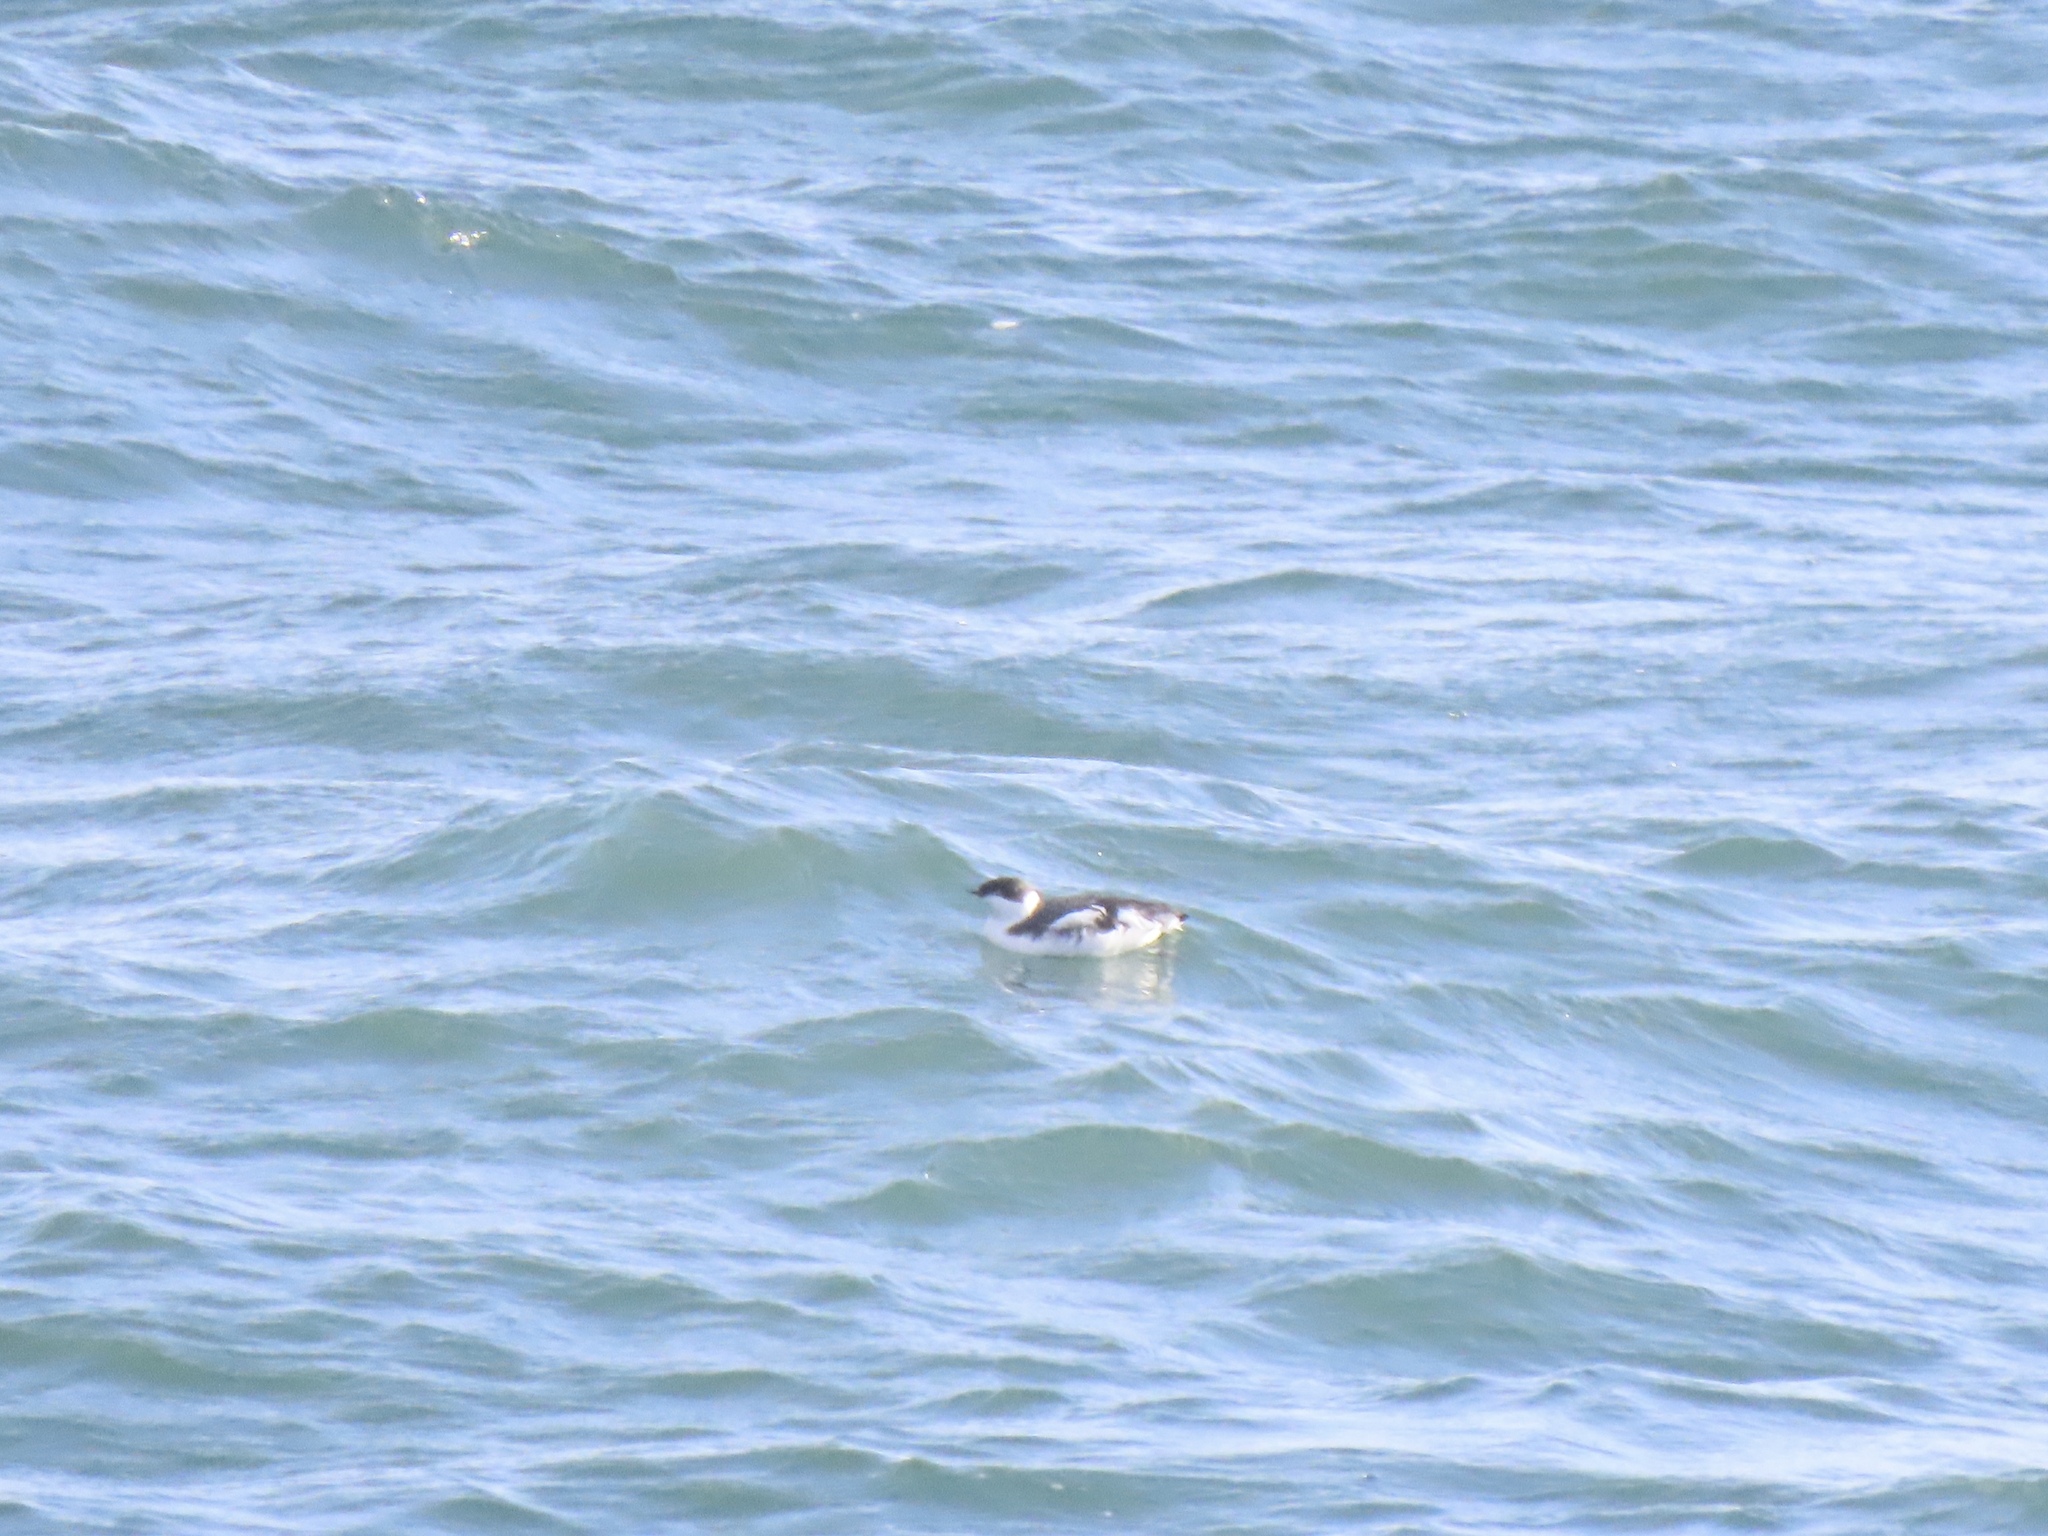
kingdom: Animalia
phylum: Chordata
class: Aves
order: Charadriiformes
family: Alcidae
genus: Brachyramphus
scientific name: Brachyramphus marmoratus
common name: Marbled murrelet
